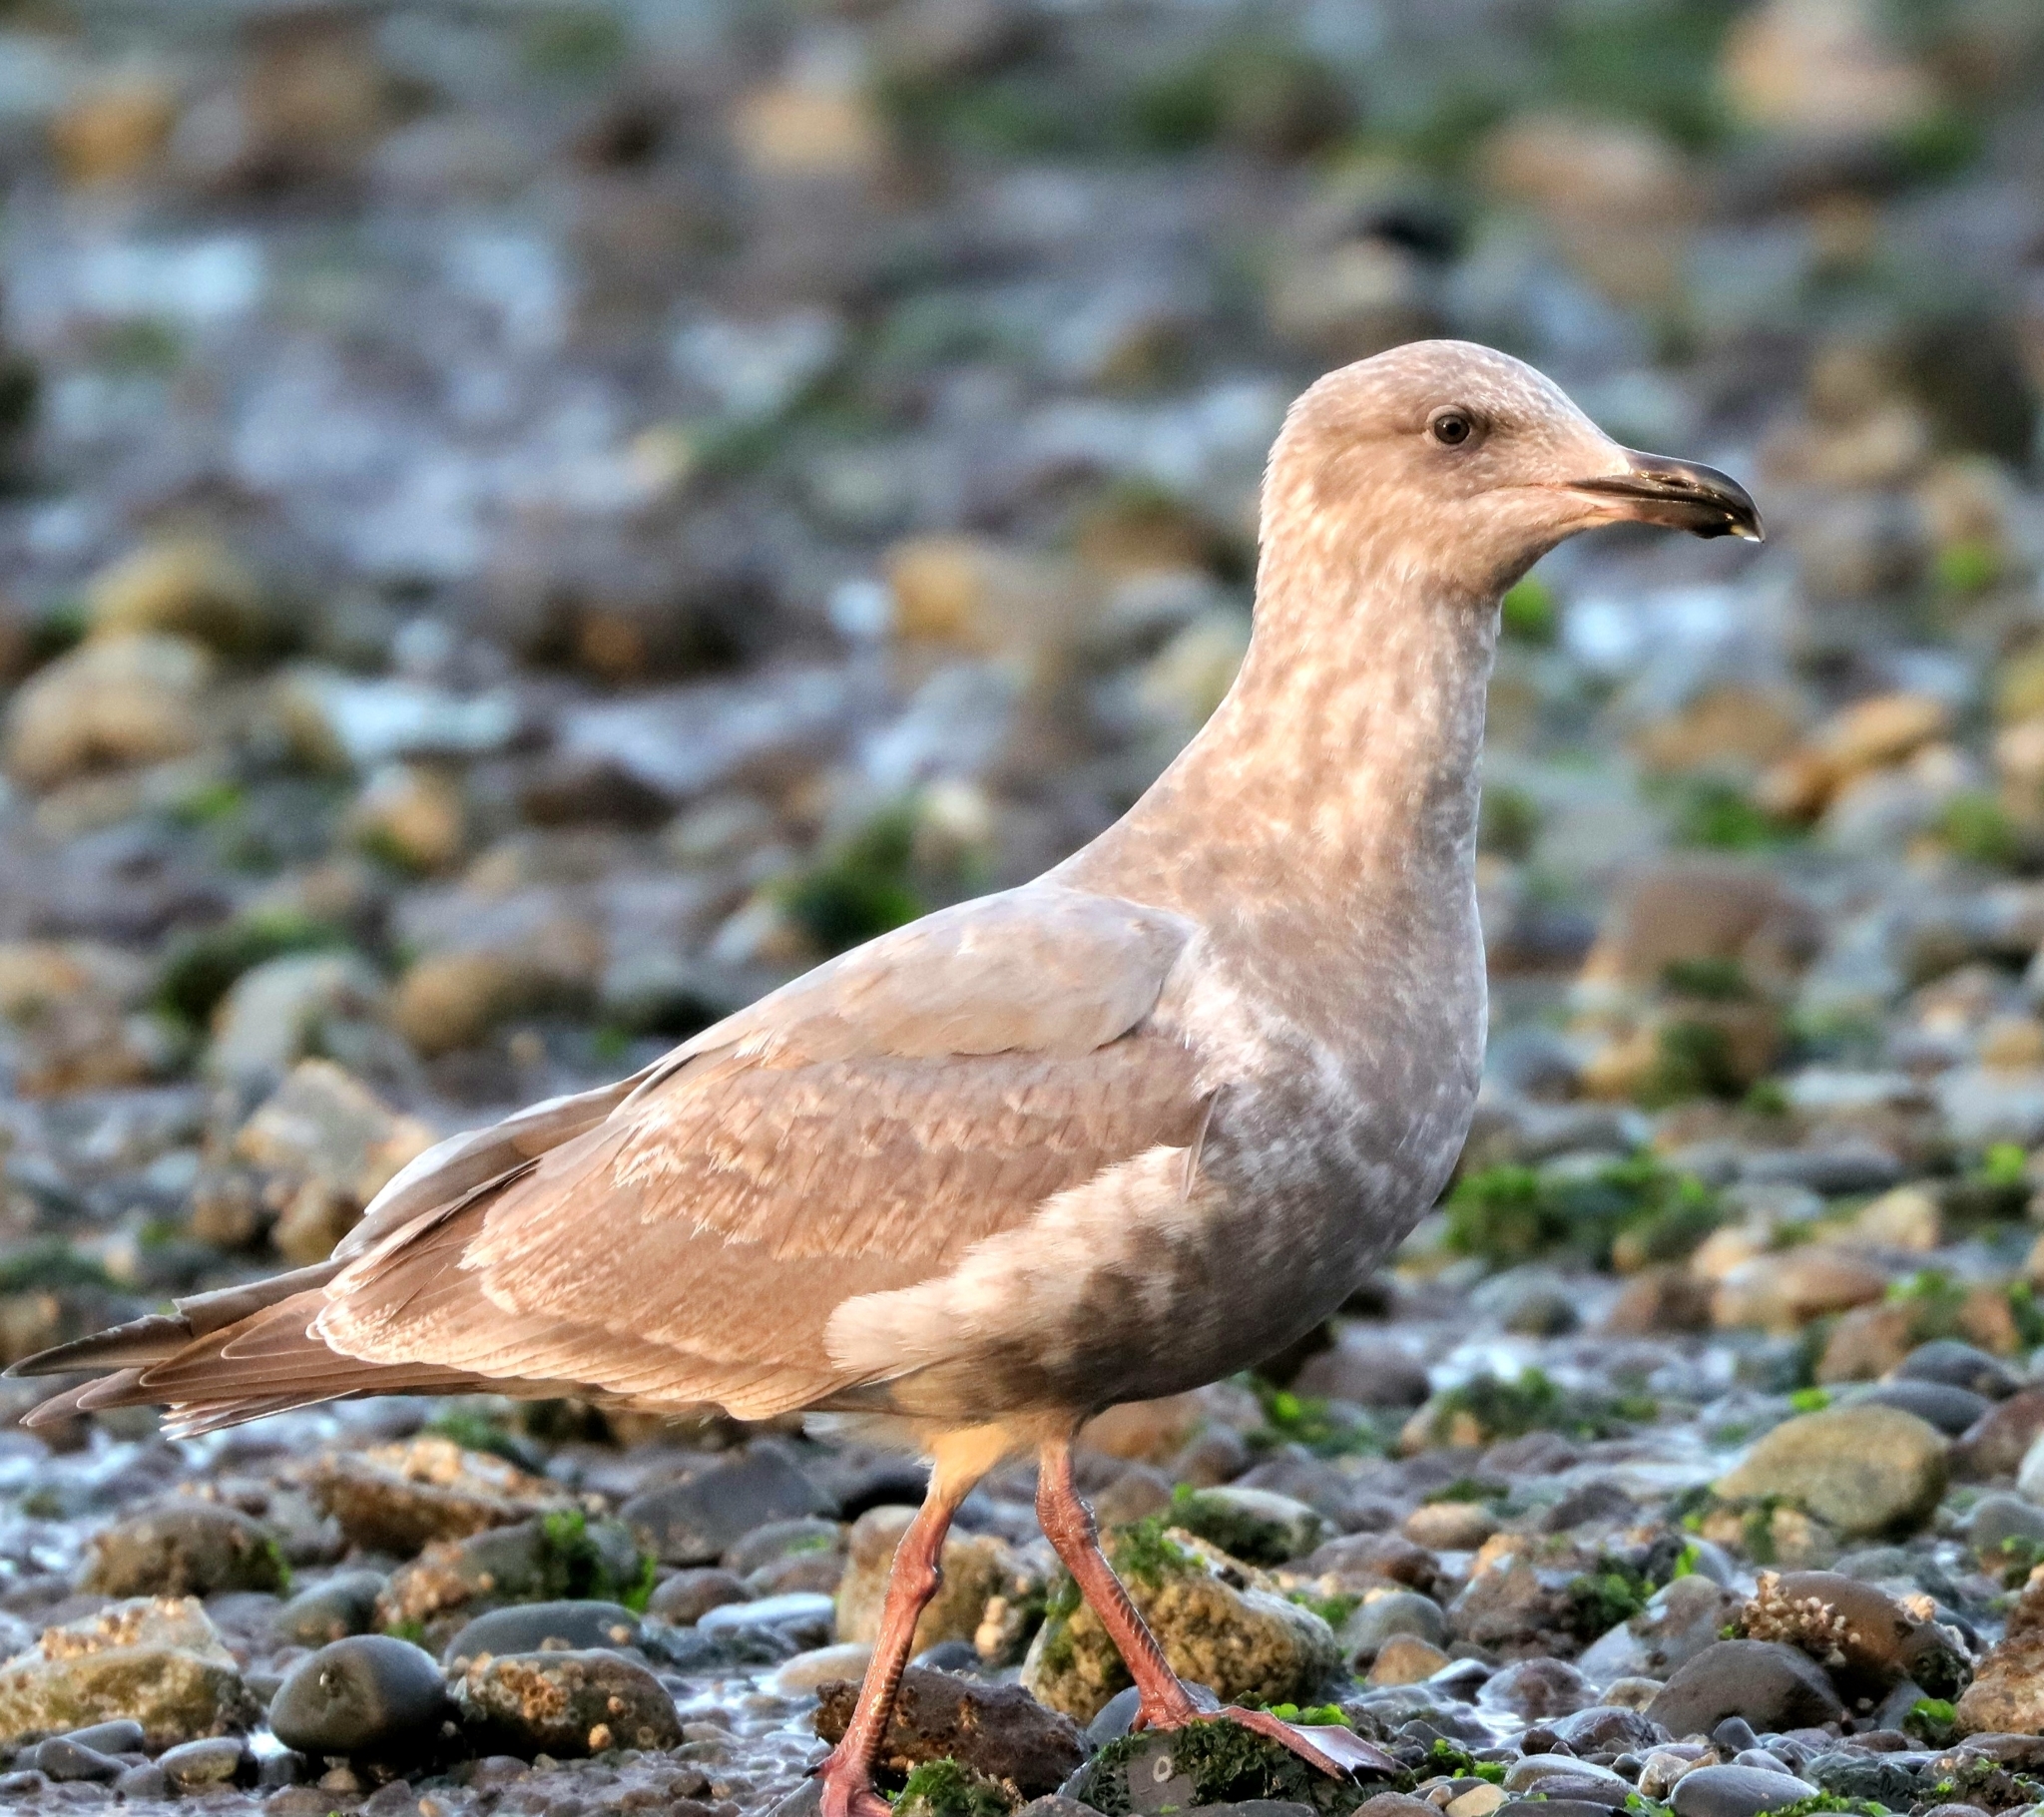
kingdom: Animalia
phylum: Chordata
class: Aves
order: Charadriiformes
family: Laridae
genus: Larus
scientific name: Larus
